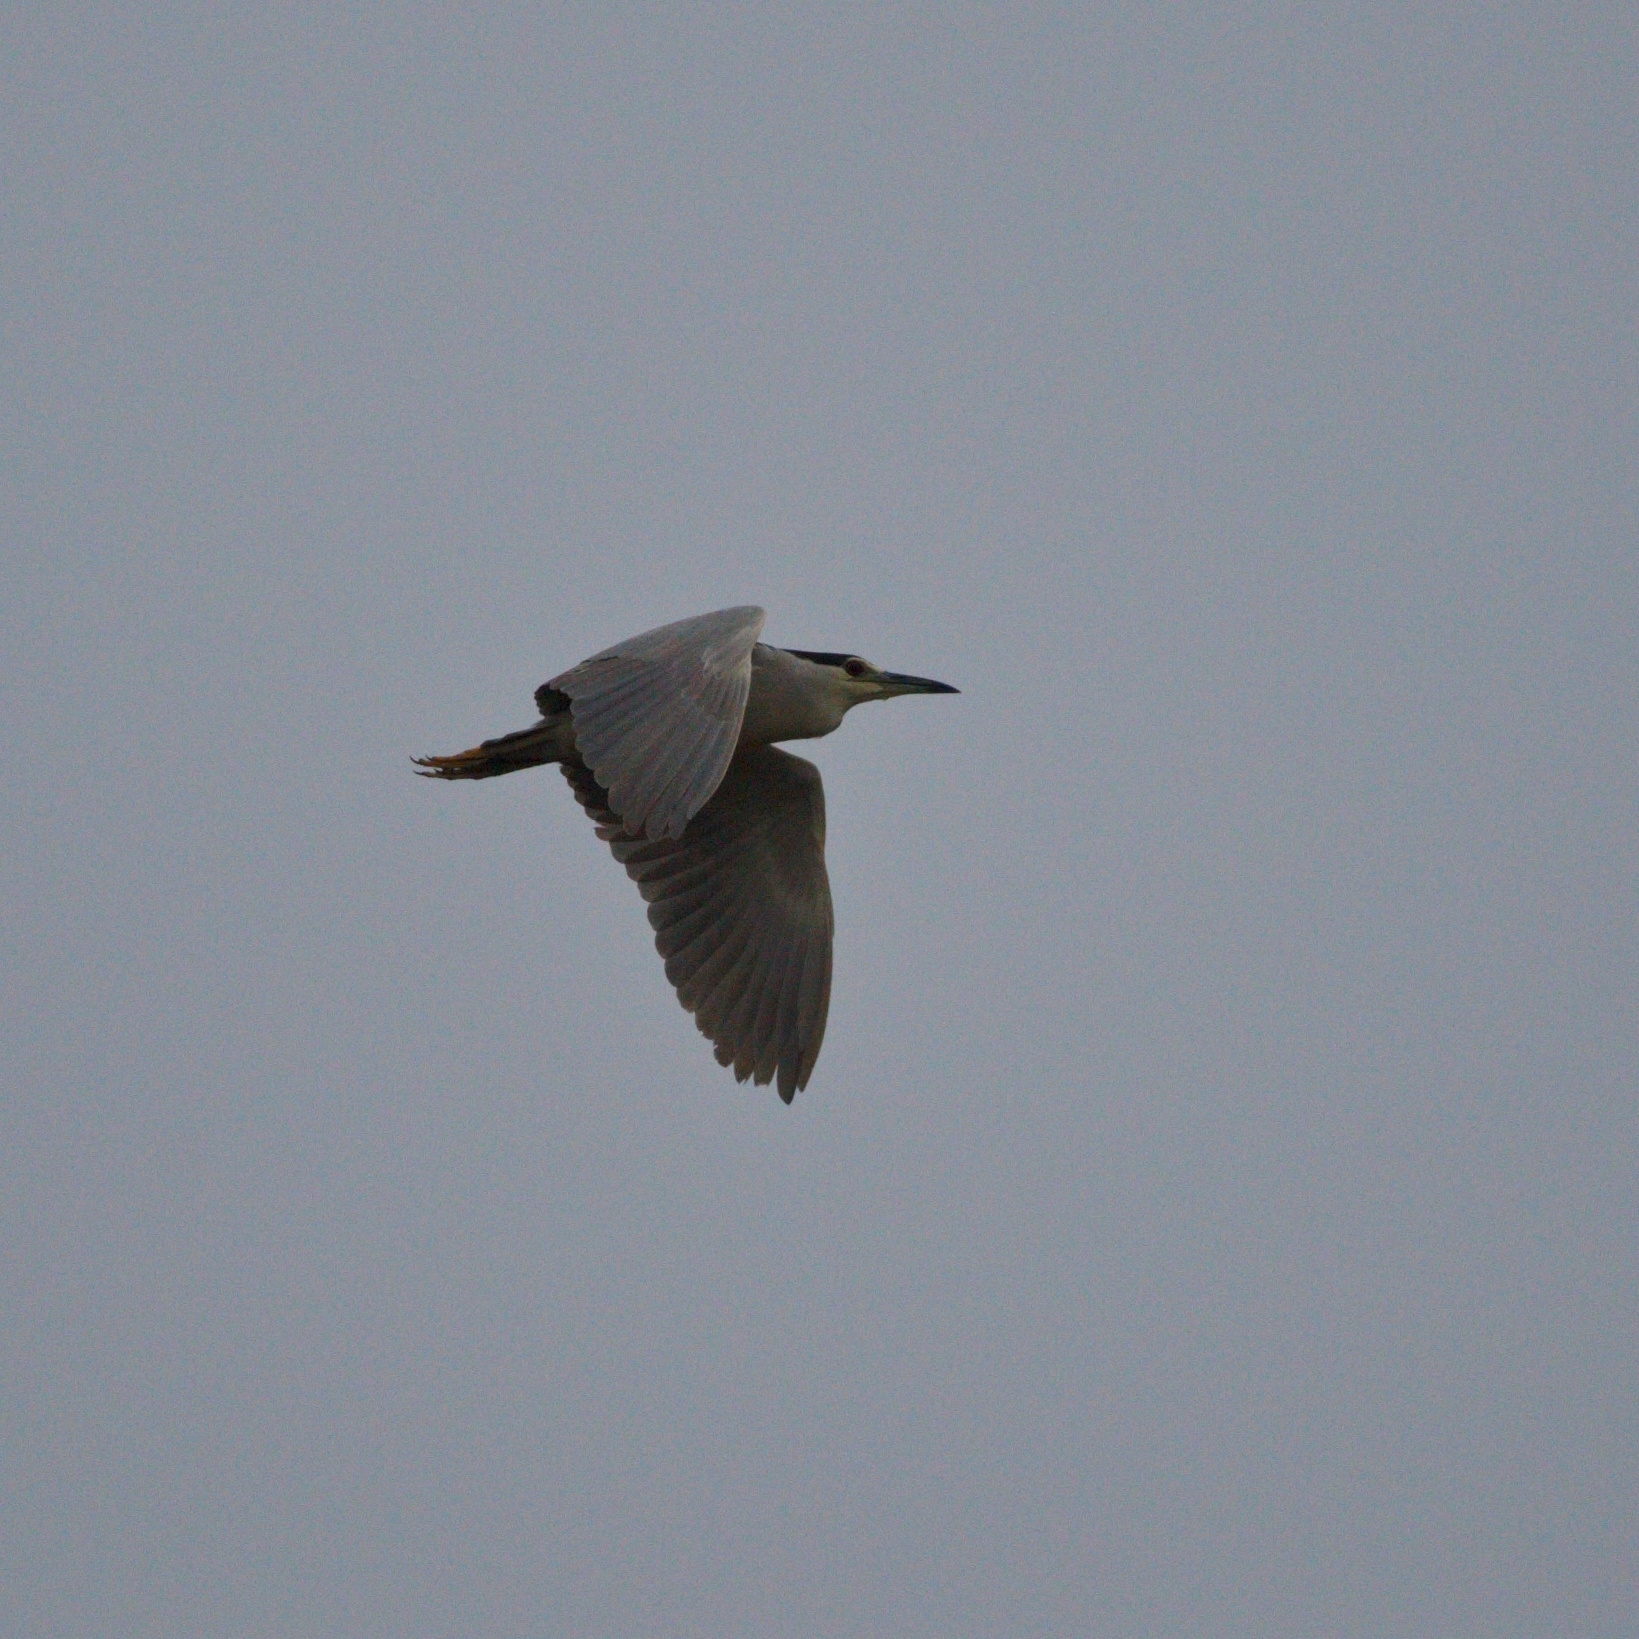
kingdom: Animalia
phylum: Chordata
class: Aves
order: Pelecaniformes
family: Ardeidae
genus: Nycticorax
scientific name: Nycticorax nycticorax
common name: Black-crowned night heron
